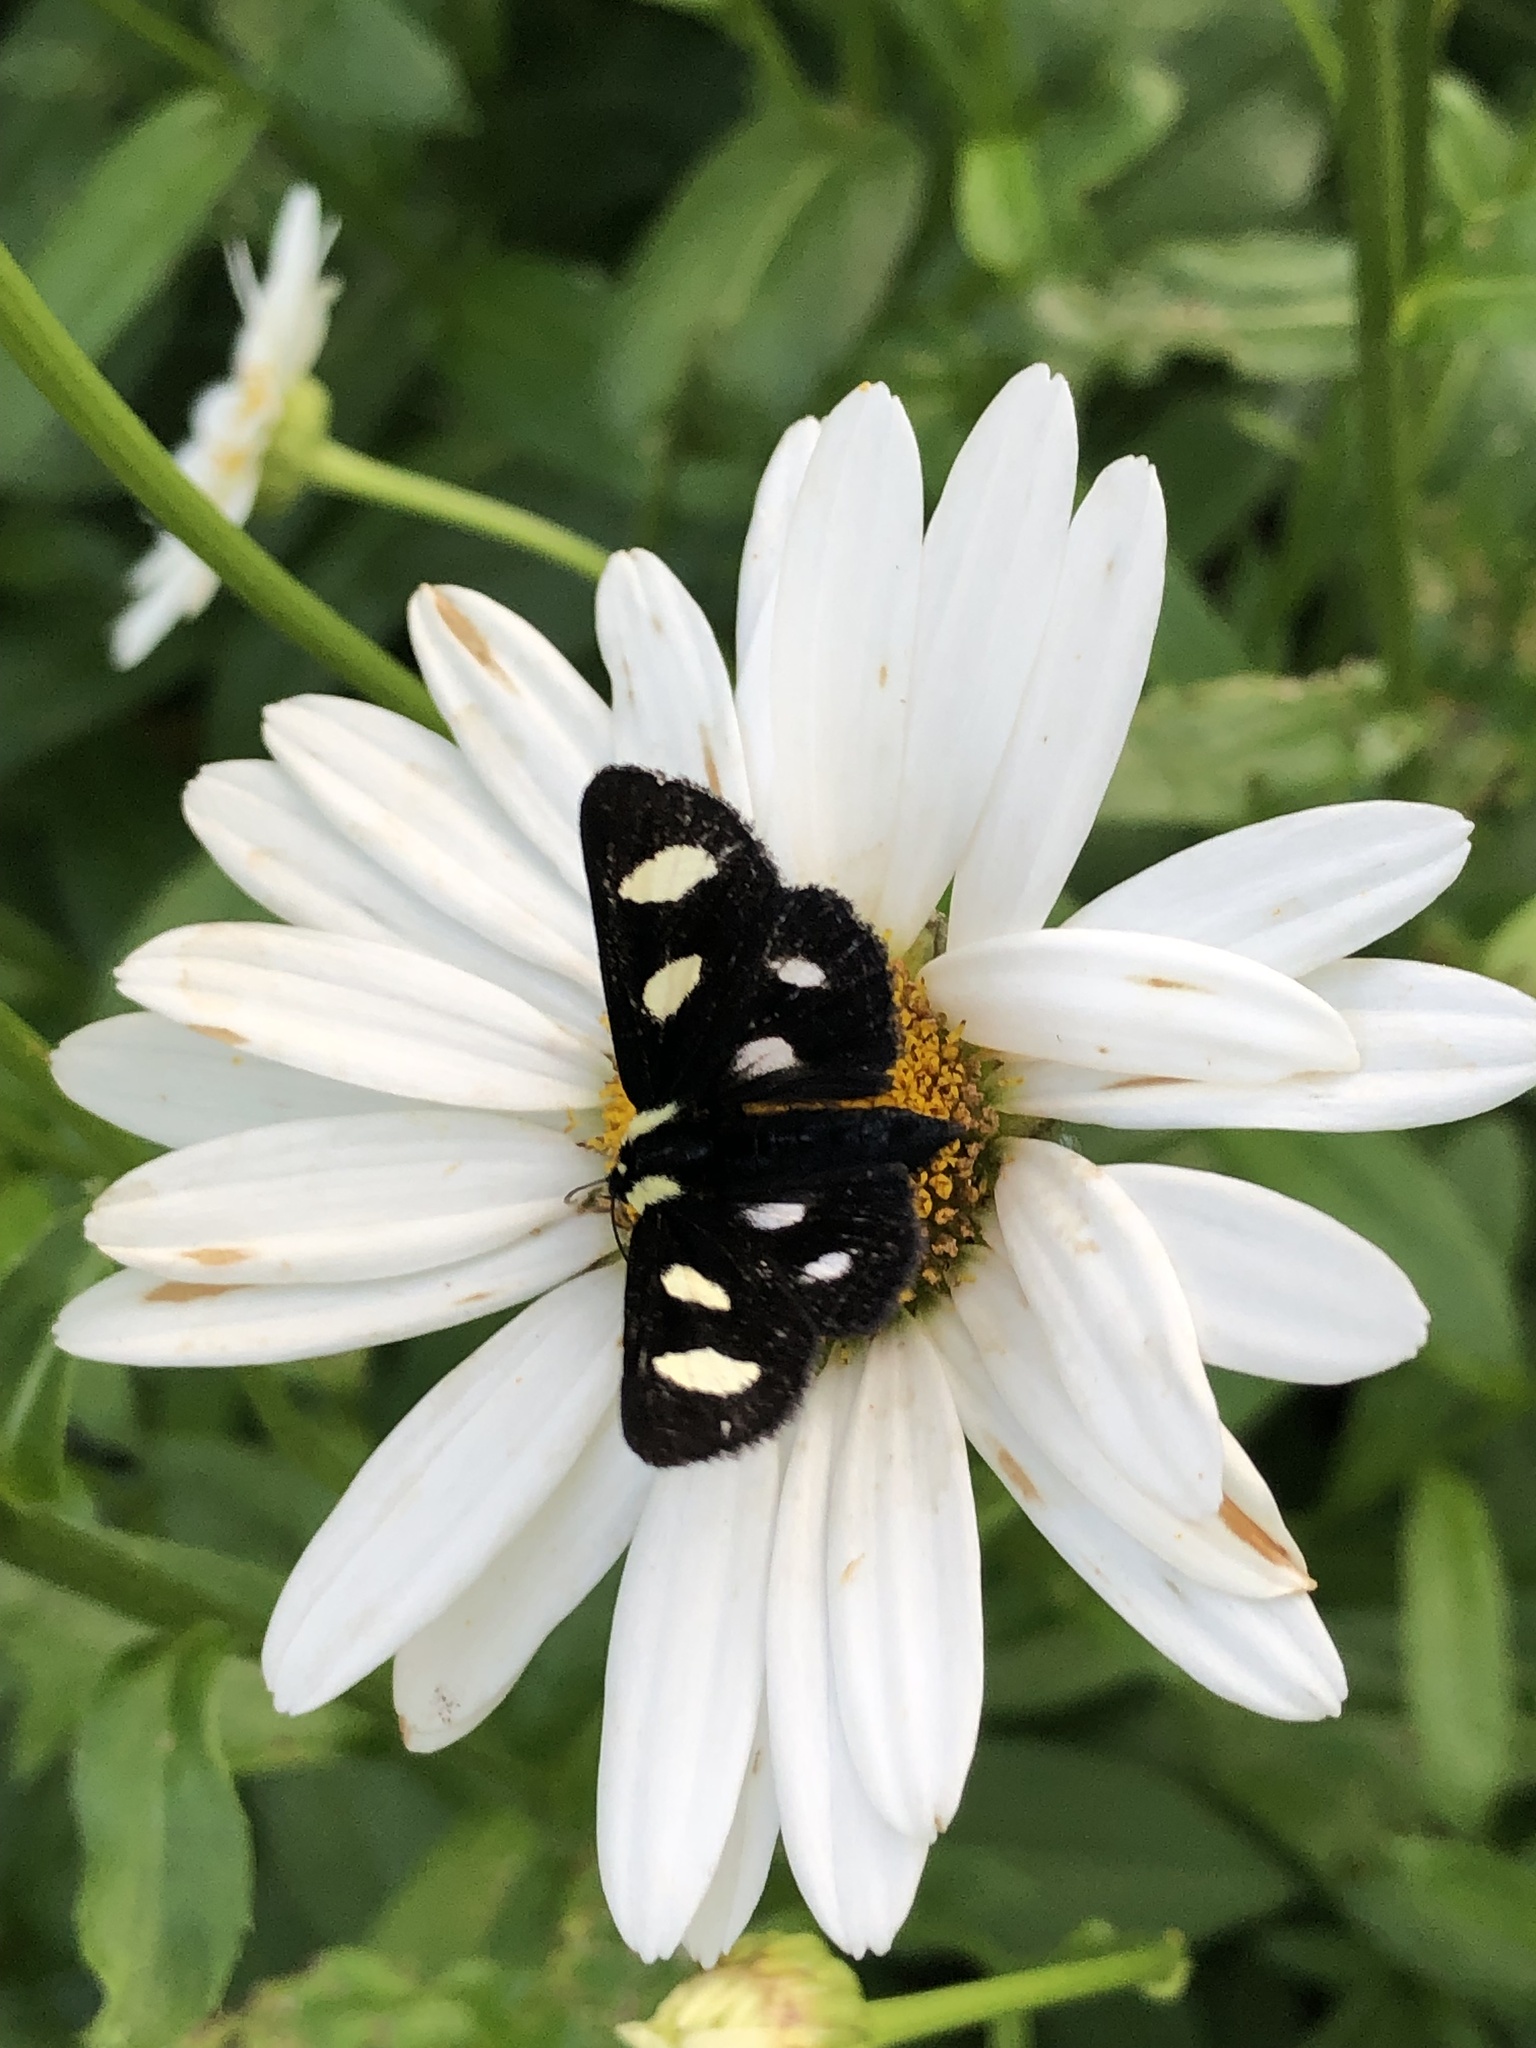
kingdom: Animalia
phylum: Arthropoda
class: Insecta
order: Lepidoptera
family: Noctuidae
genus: Alypia
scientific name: Alypia octomaculata
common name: Eight-spotted forester
